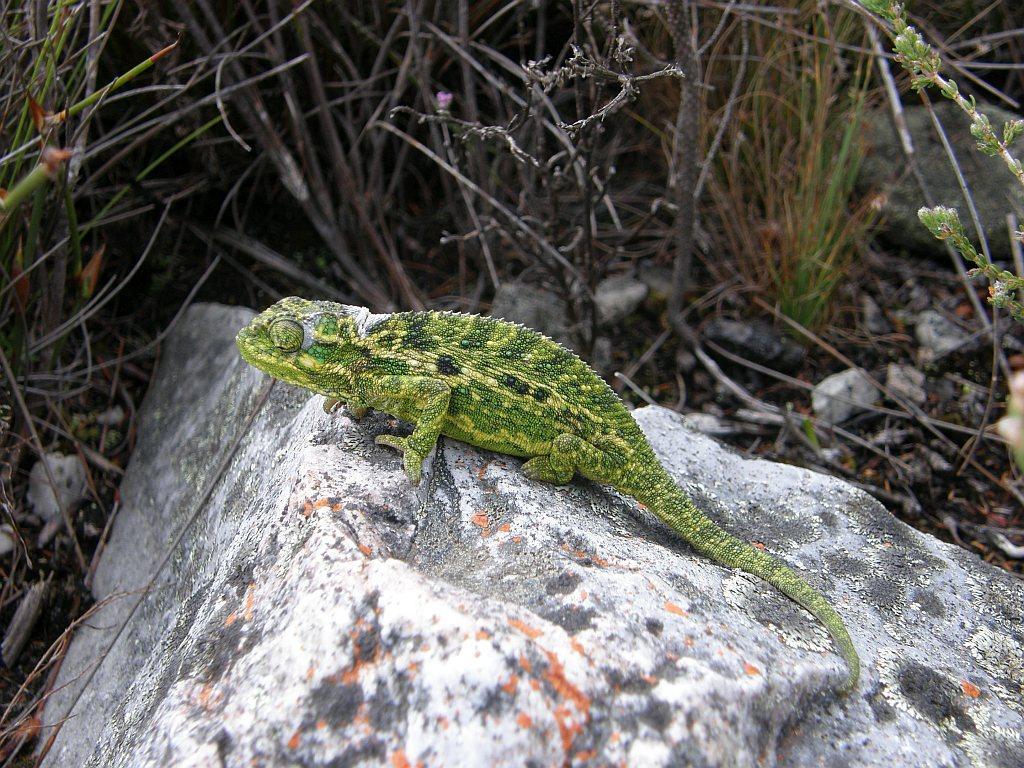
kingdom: Animalia
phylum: Chordata
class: Squamata
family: Chamaeleonidae
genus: Bradypodion
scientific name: Bradypodion pumilum
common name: Cape dwarf chameleon
